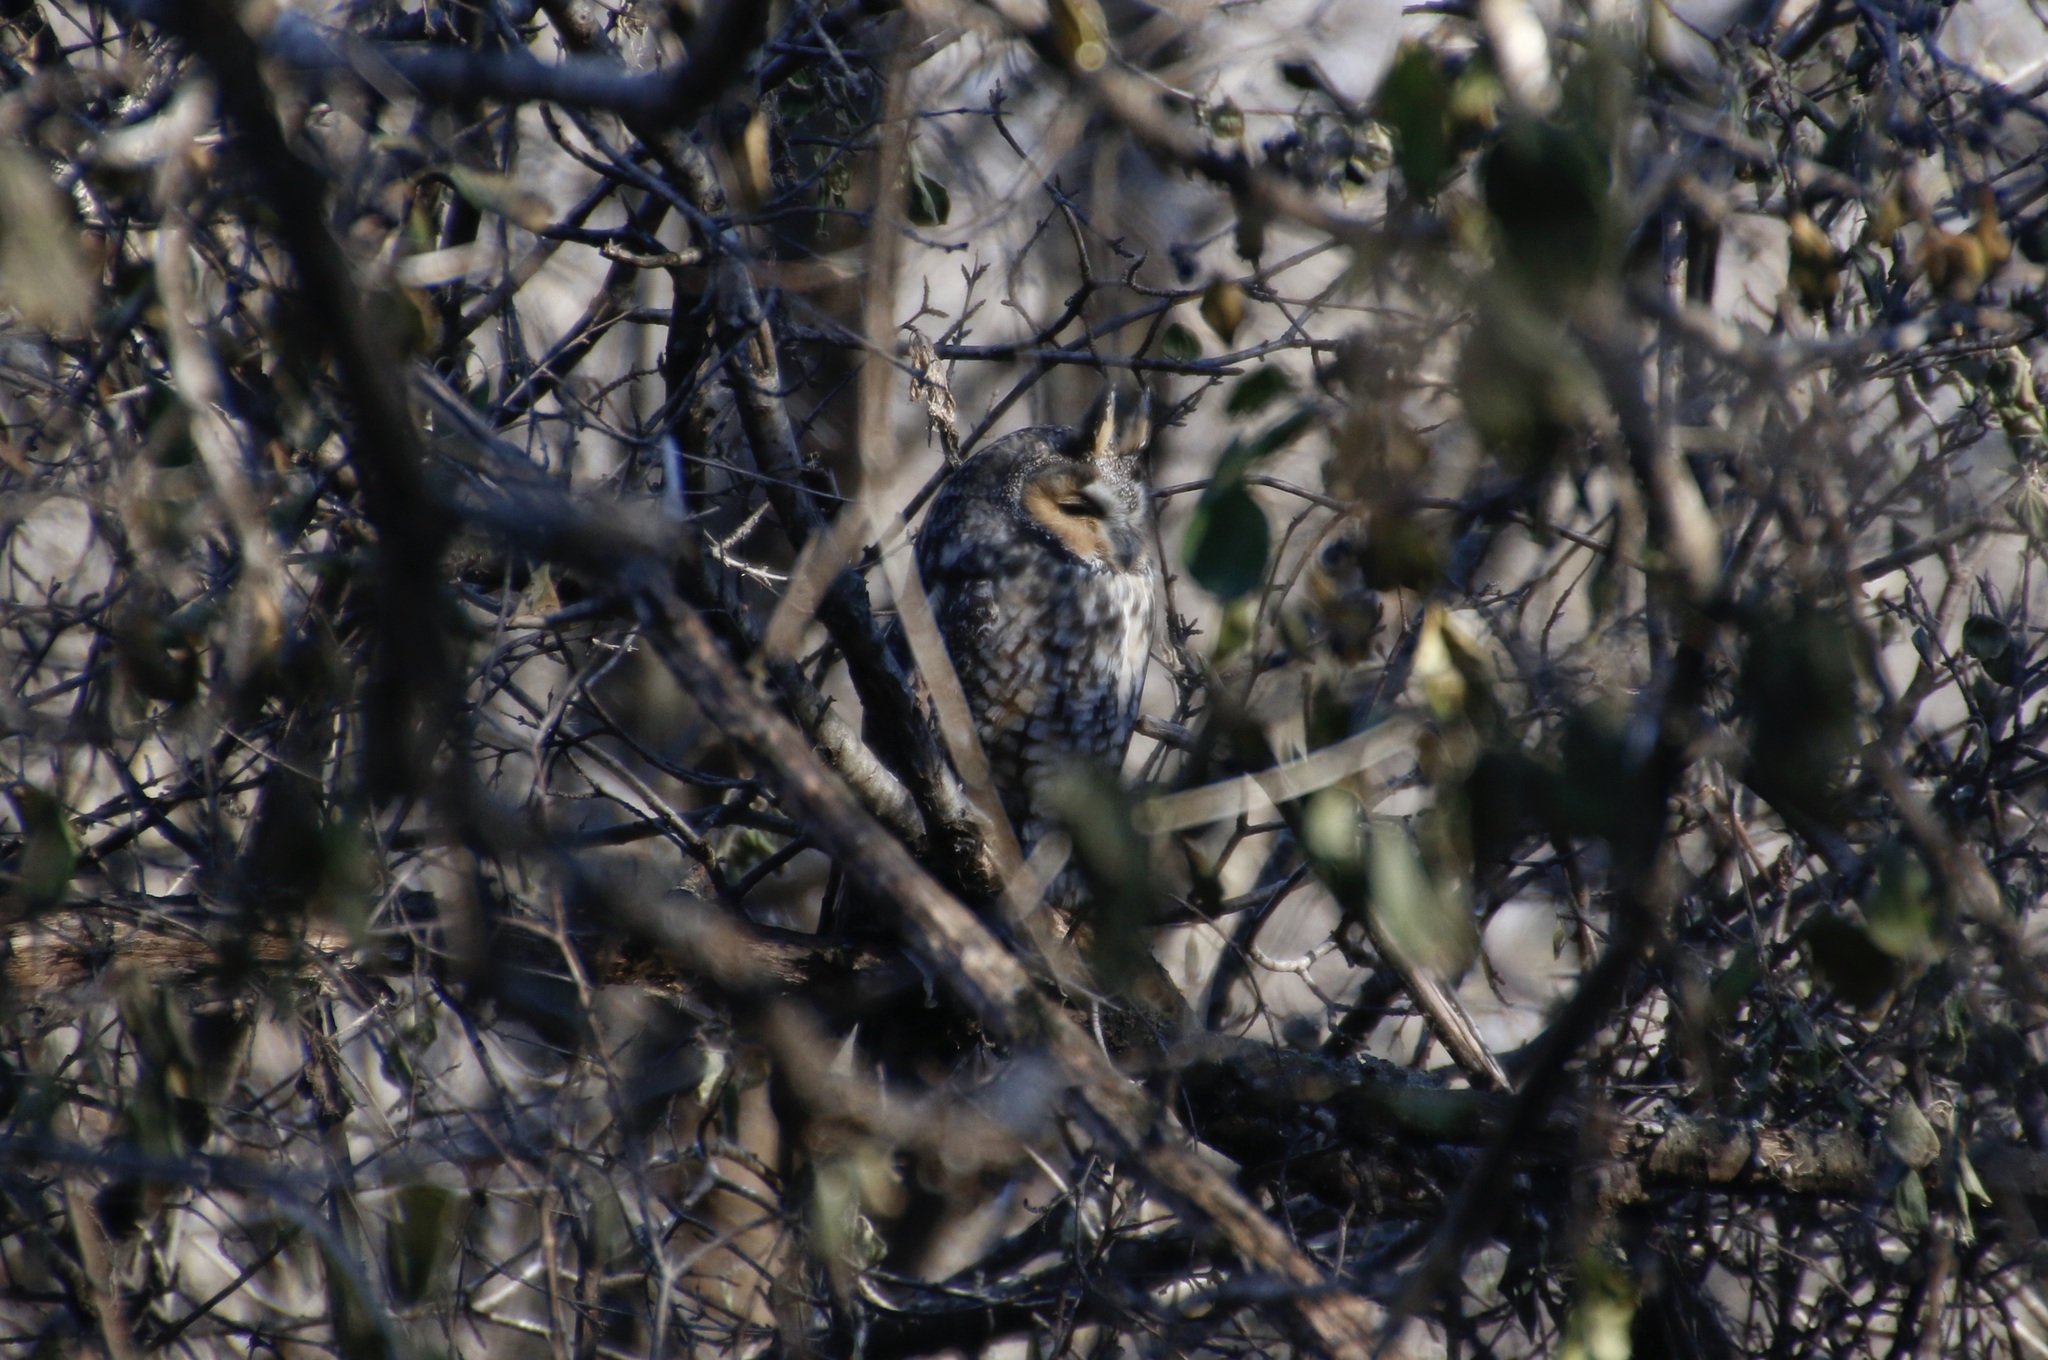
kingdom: Animalia
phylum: Chordata
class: Aves
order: Strigiformes
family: Strigidae
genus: Asio
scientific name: Asio otus
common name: Long-eared owl
